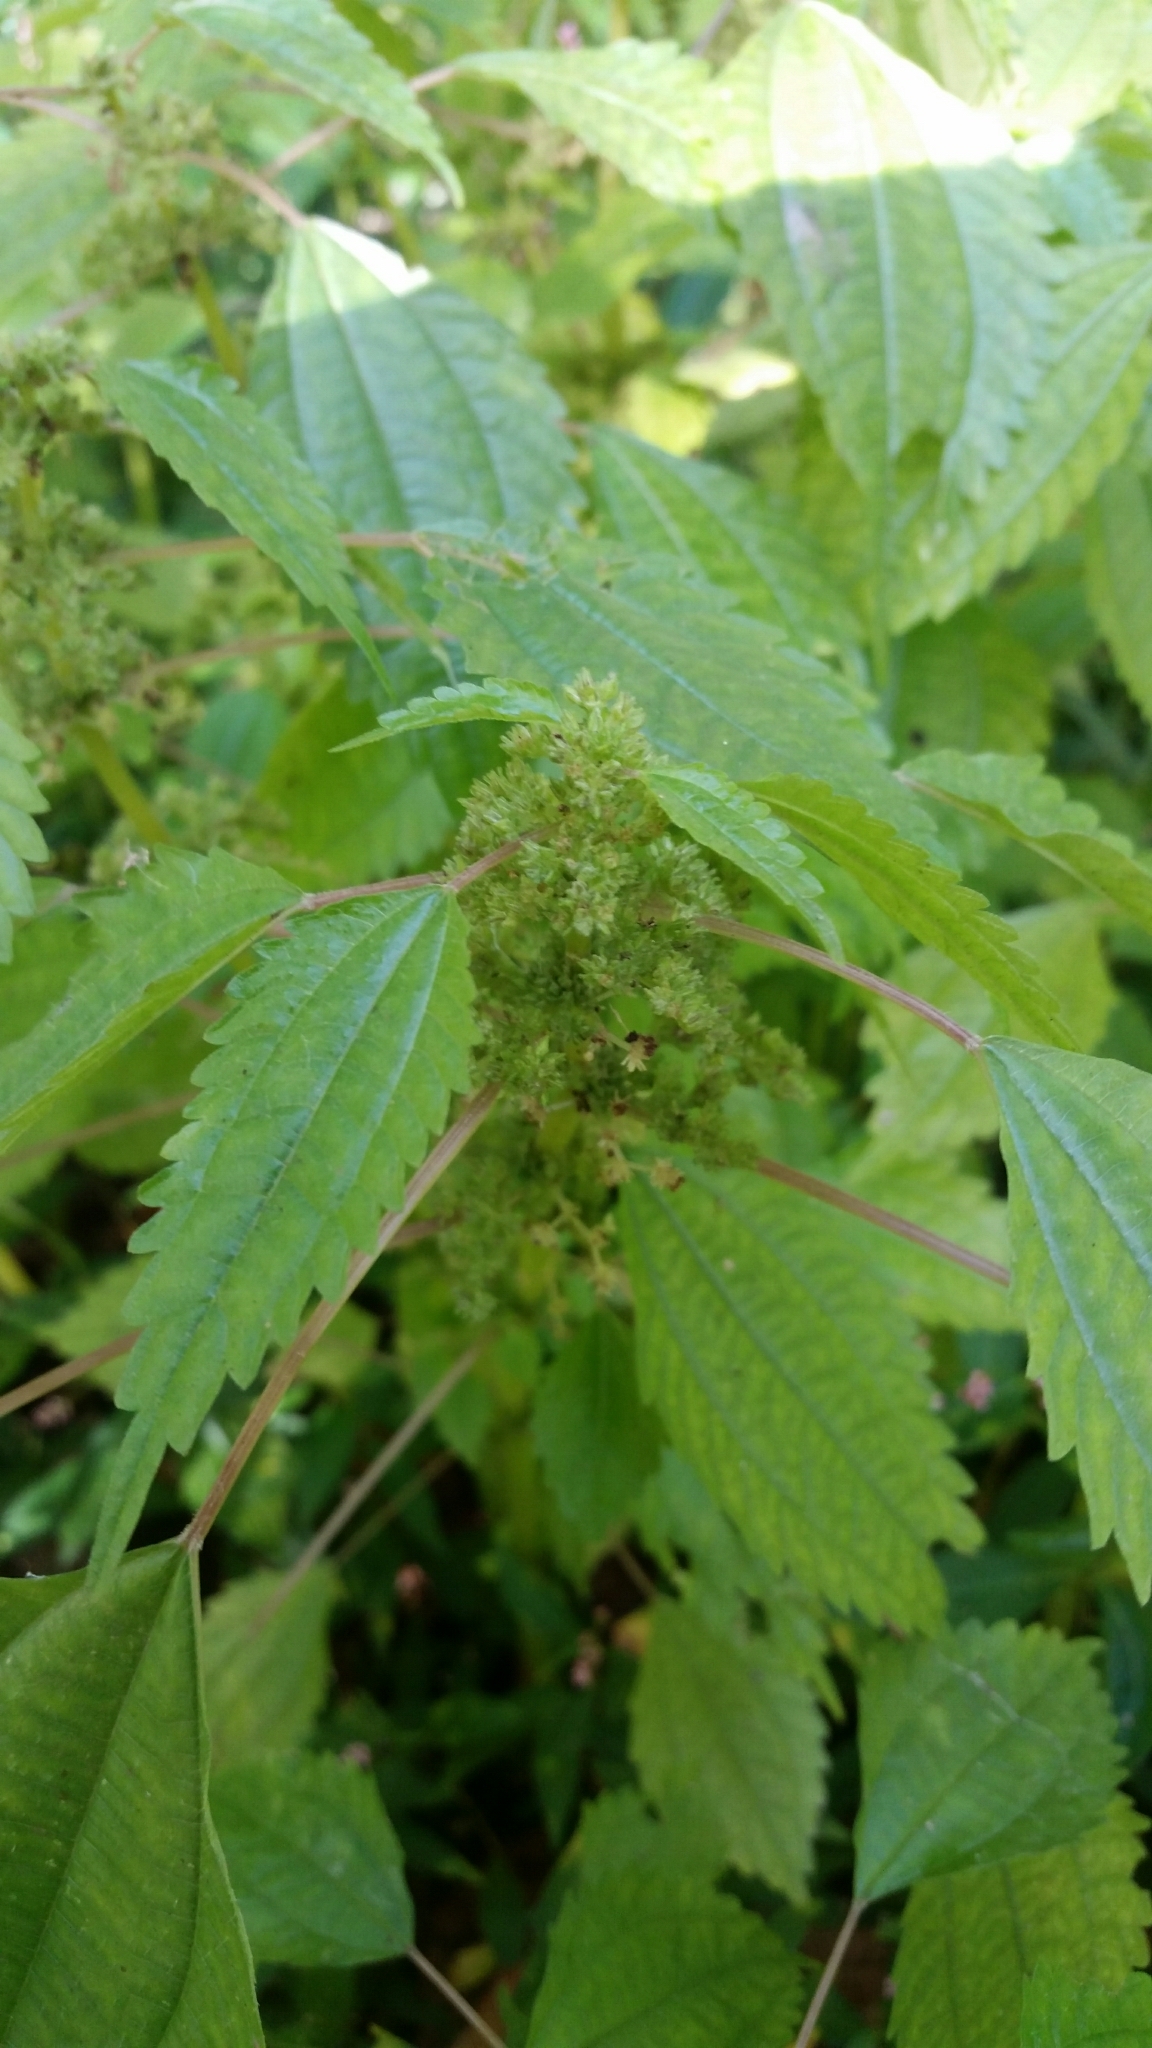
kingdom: Plantae
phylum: Tracheophyta
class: Magnoliopsida
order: Rosales
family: Urticaceae
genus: Pilea
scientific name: Pilea pumila
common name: Clearweed
